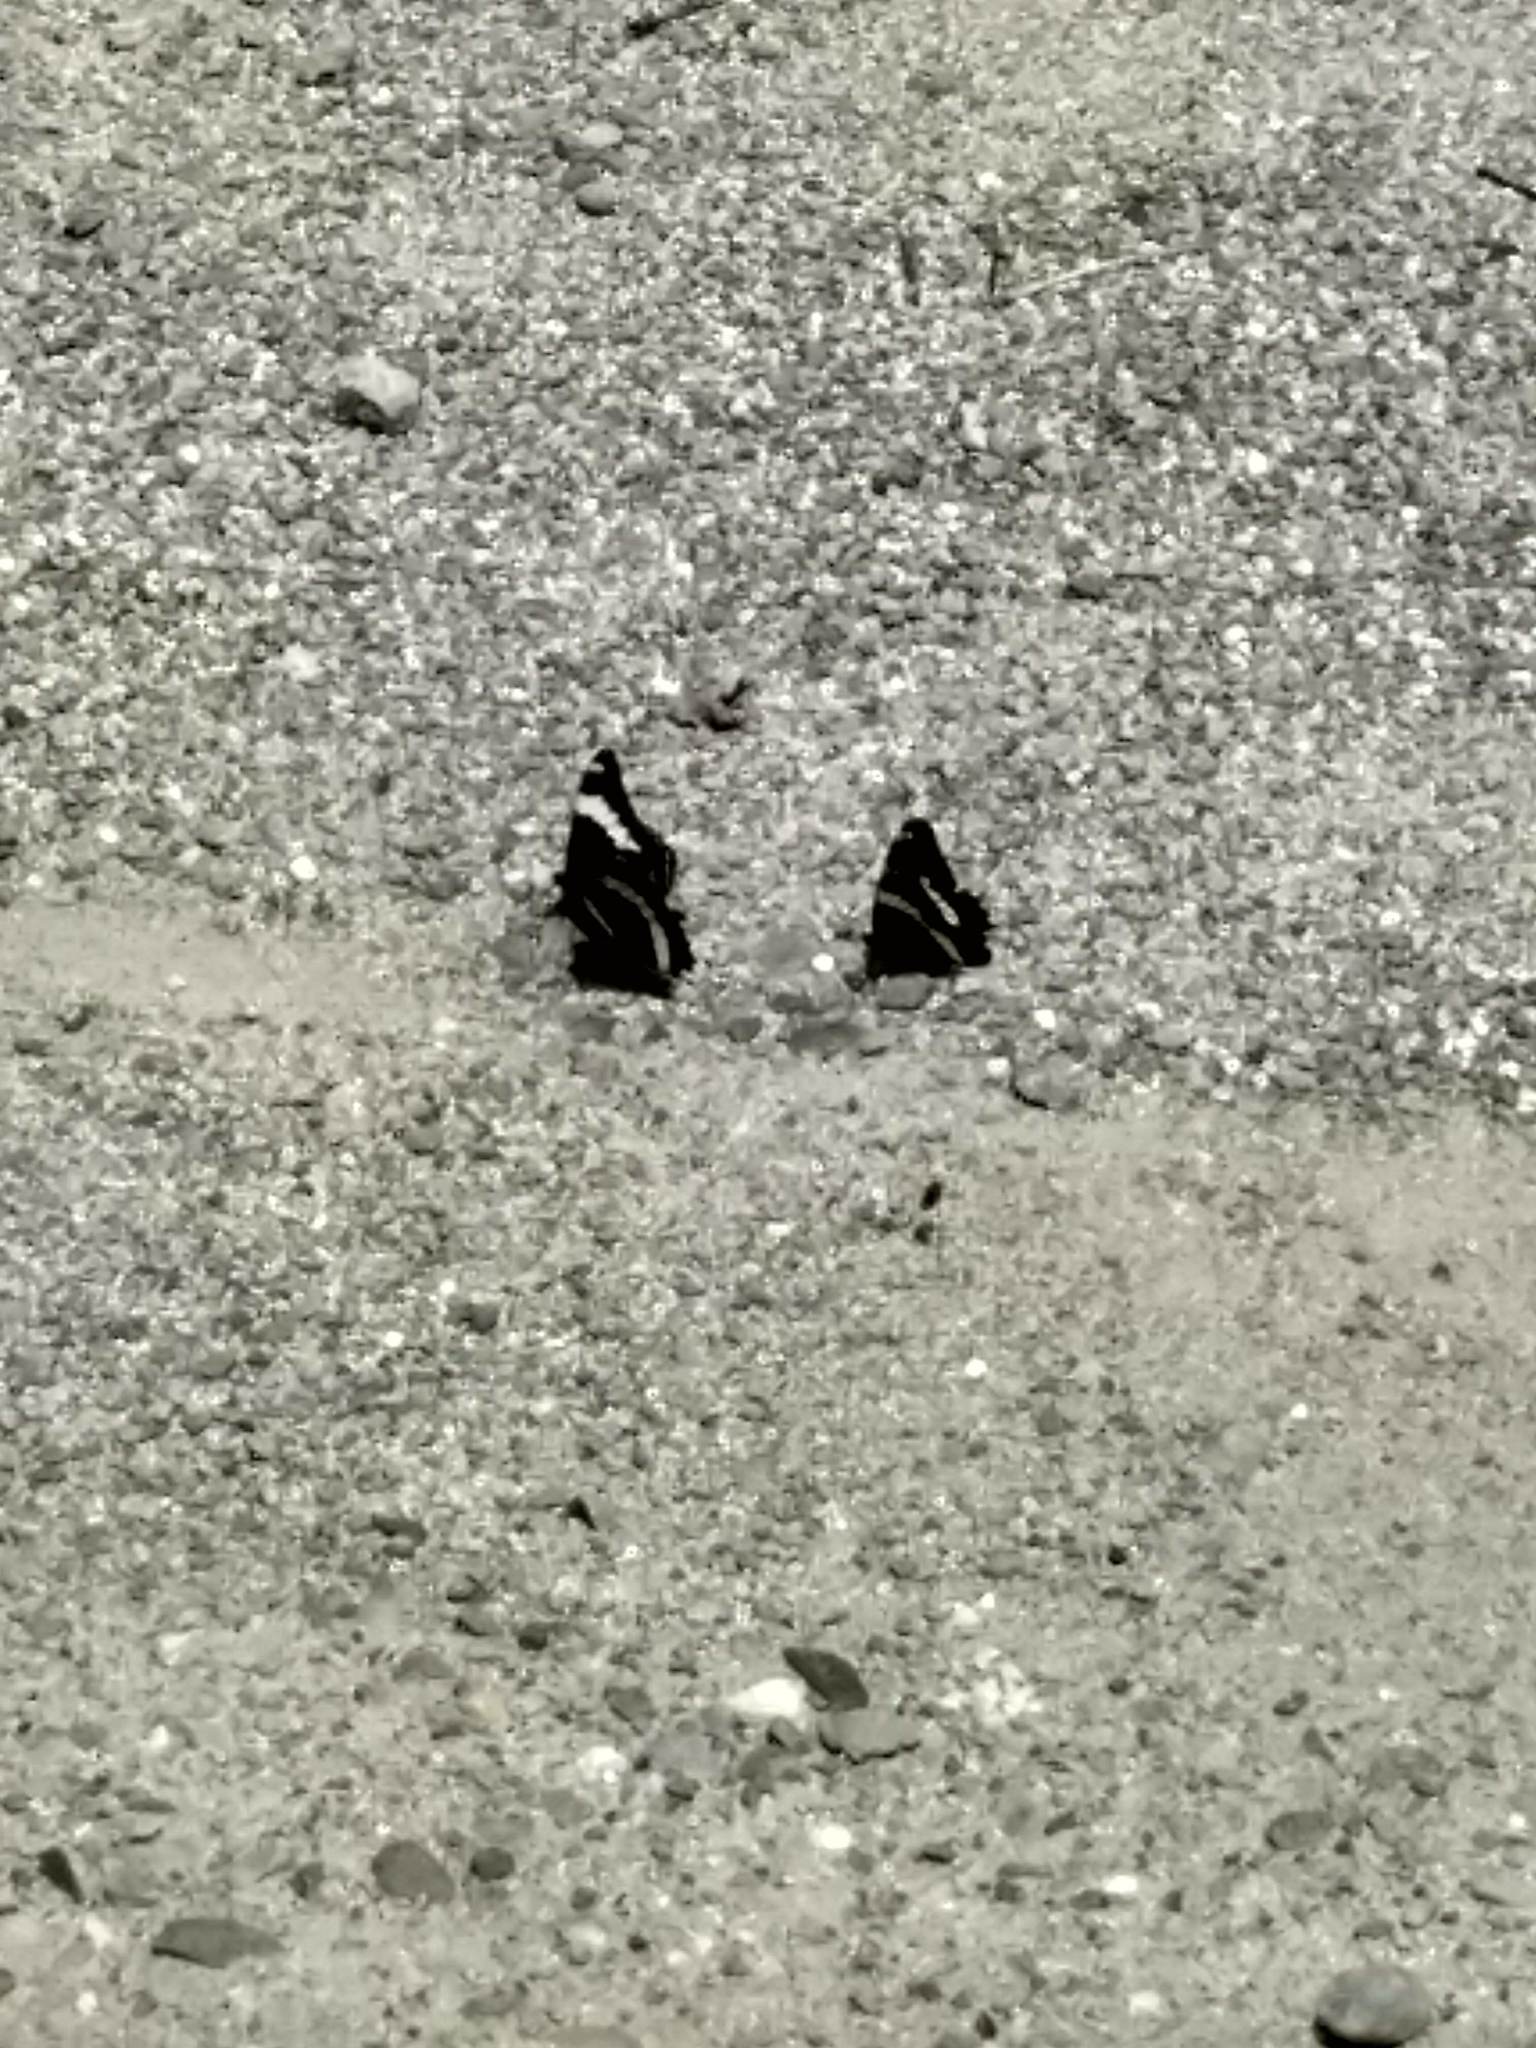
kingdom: Animalia
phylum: Arthropoda
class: Insecta
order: Lepidoptera
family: Nymphalidae
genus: Limenitis
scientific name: Limenitis arthemis
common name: Red-spotted admiral
